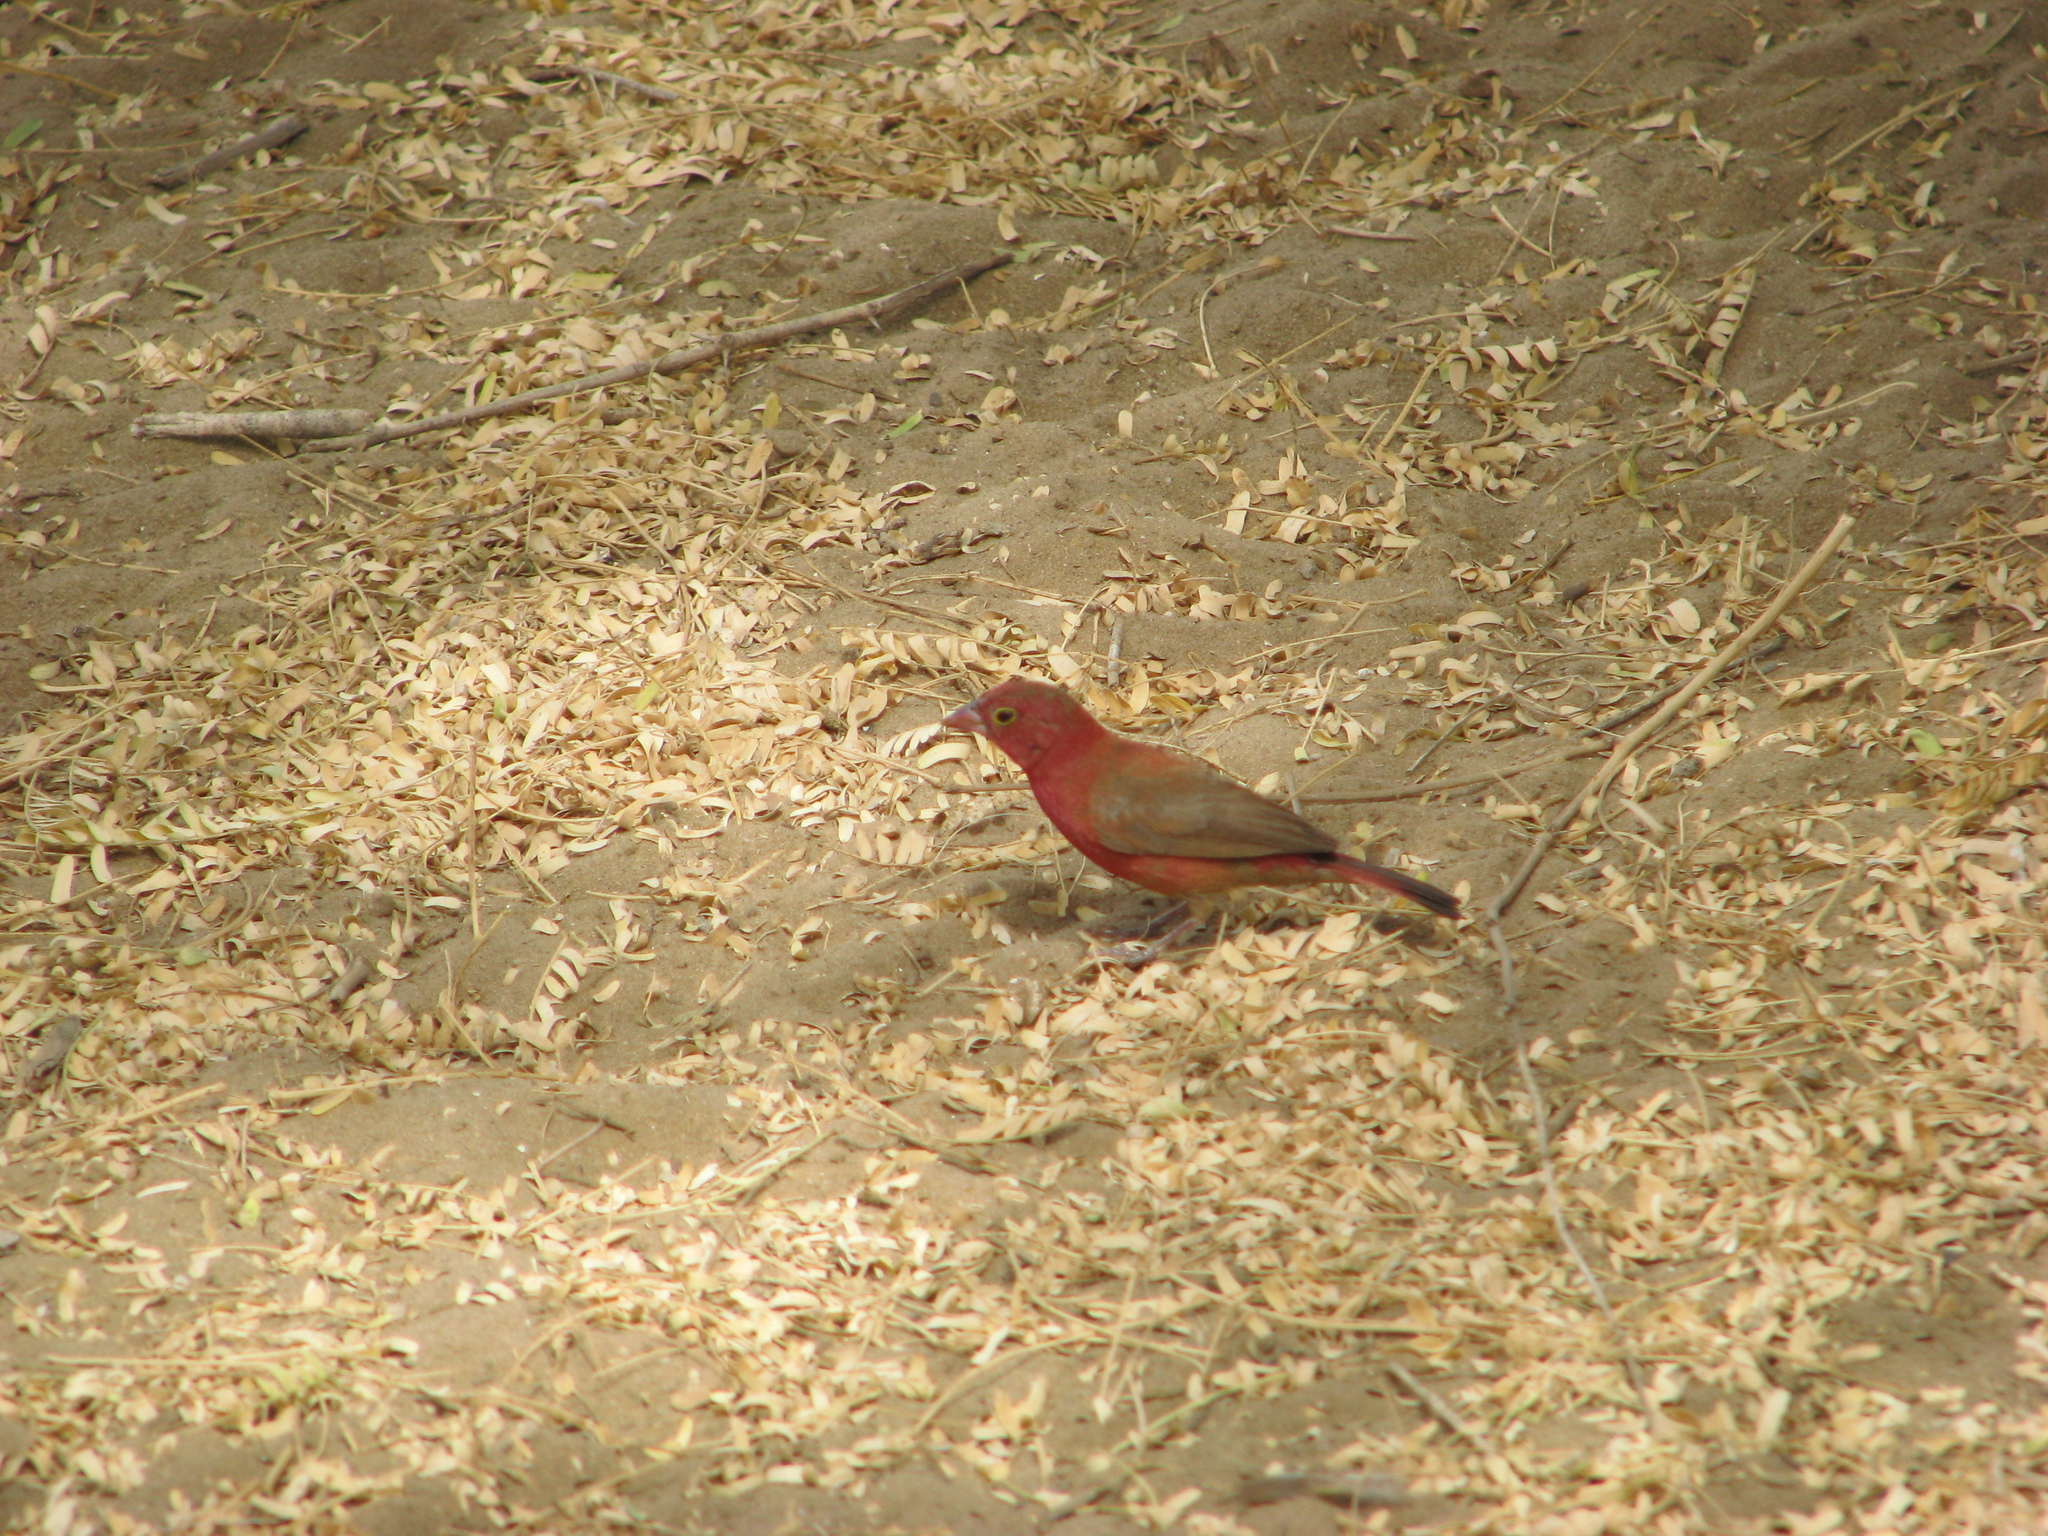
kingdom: Animalia
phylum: Chordata
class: Aves
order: Passeriformes
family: Estrildidae
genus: Lagonosticta
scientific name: Lagonosticta senegala
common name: Red-billed firefinch
